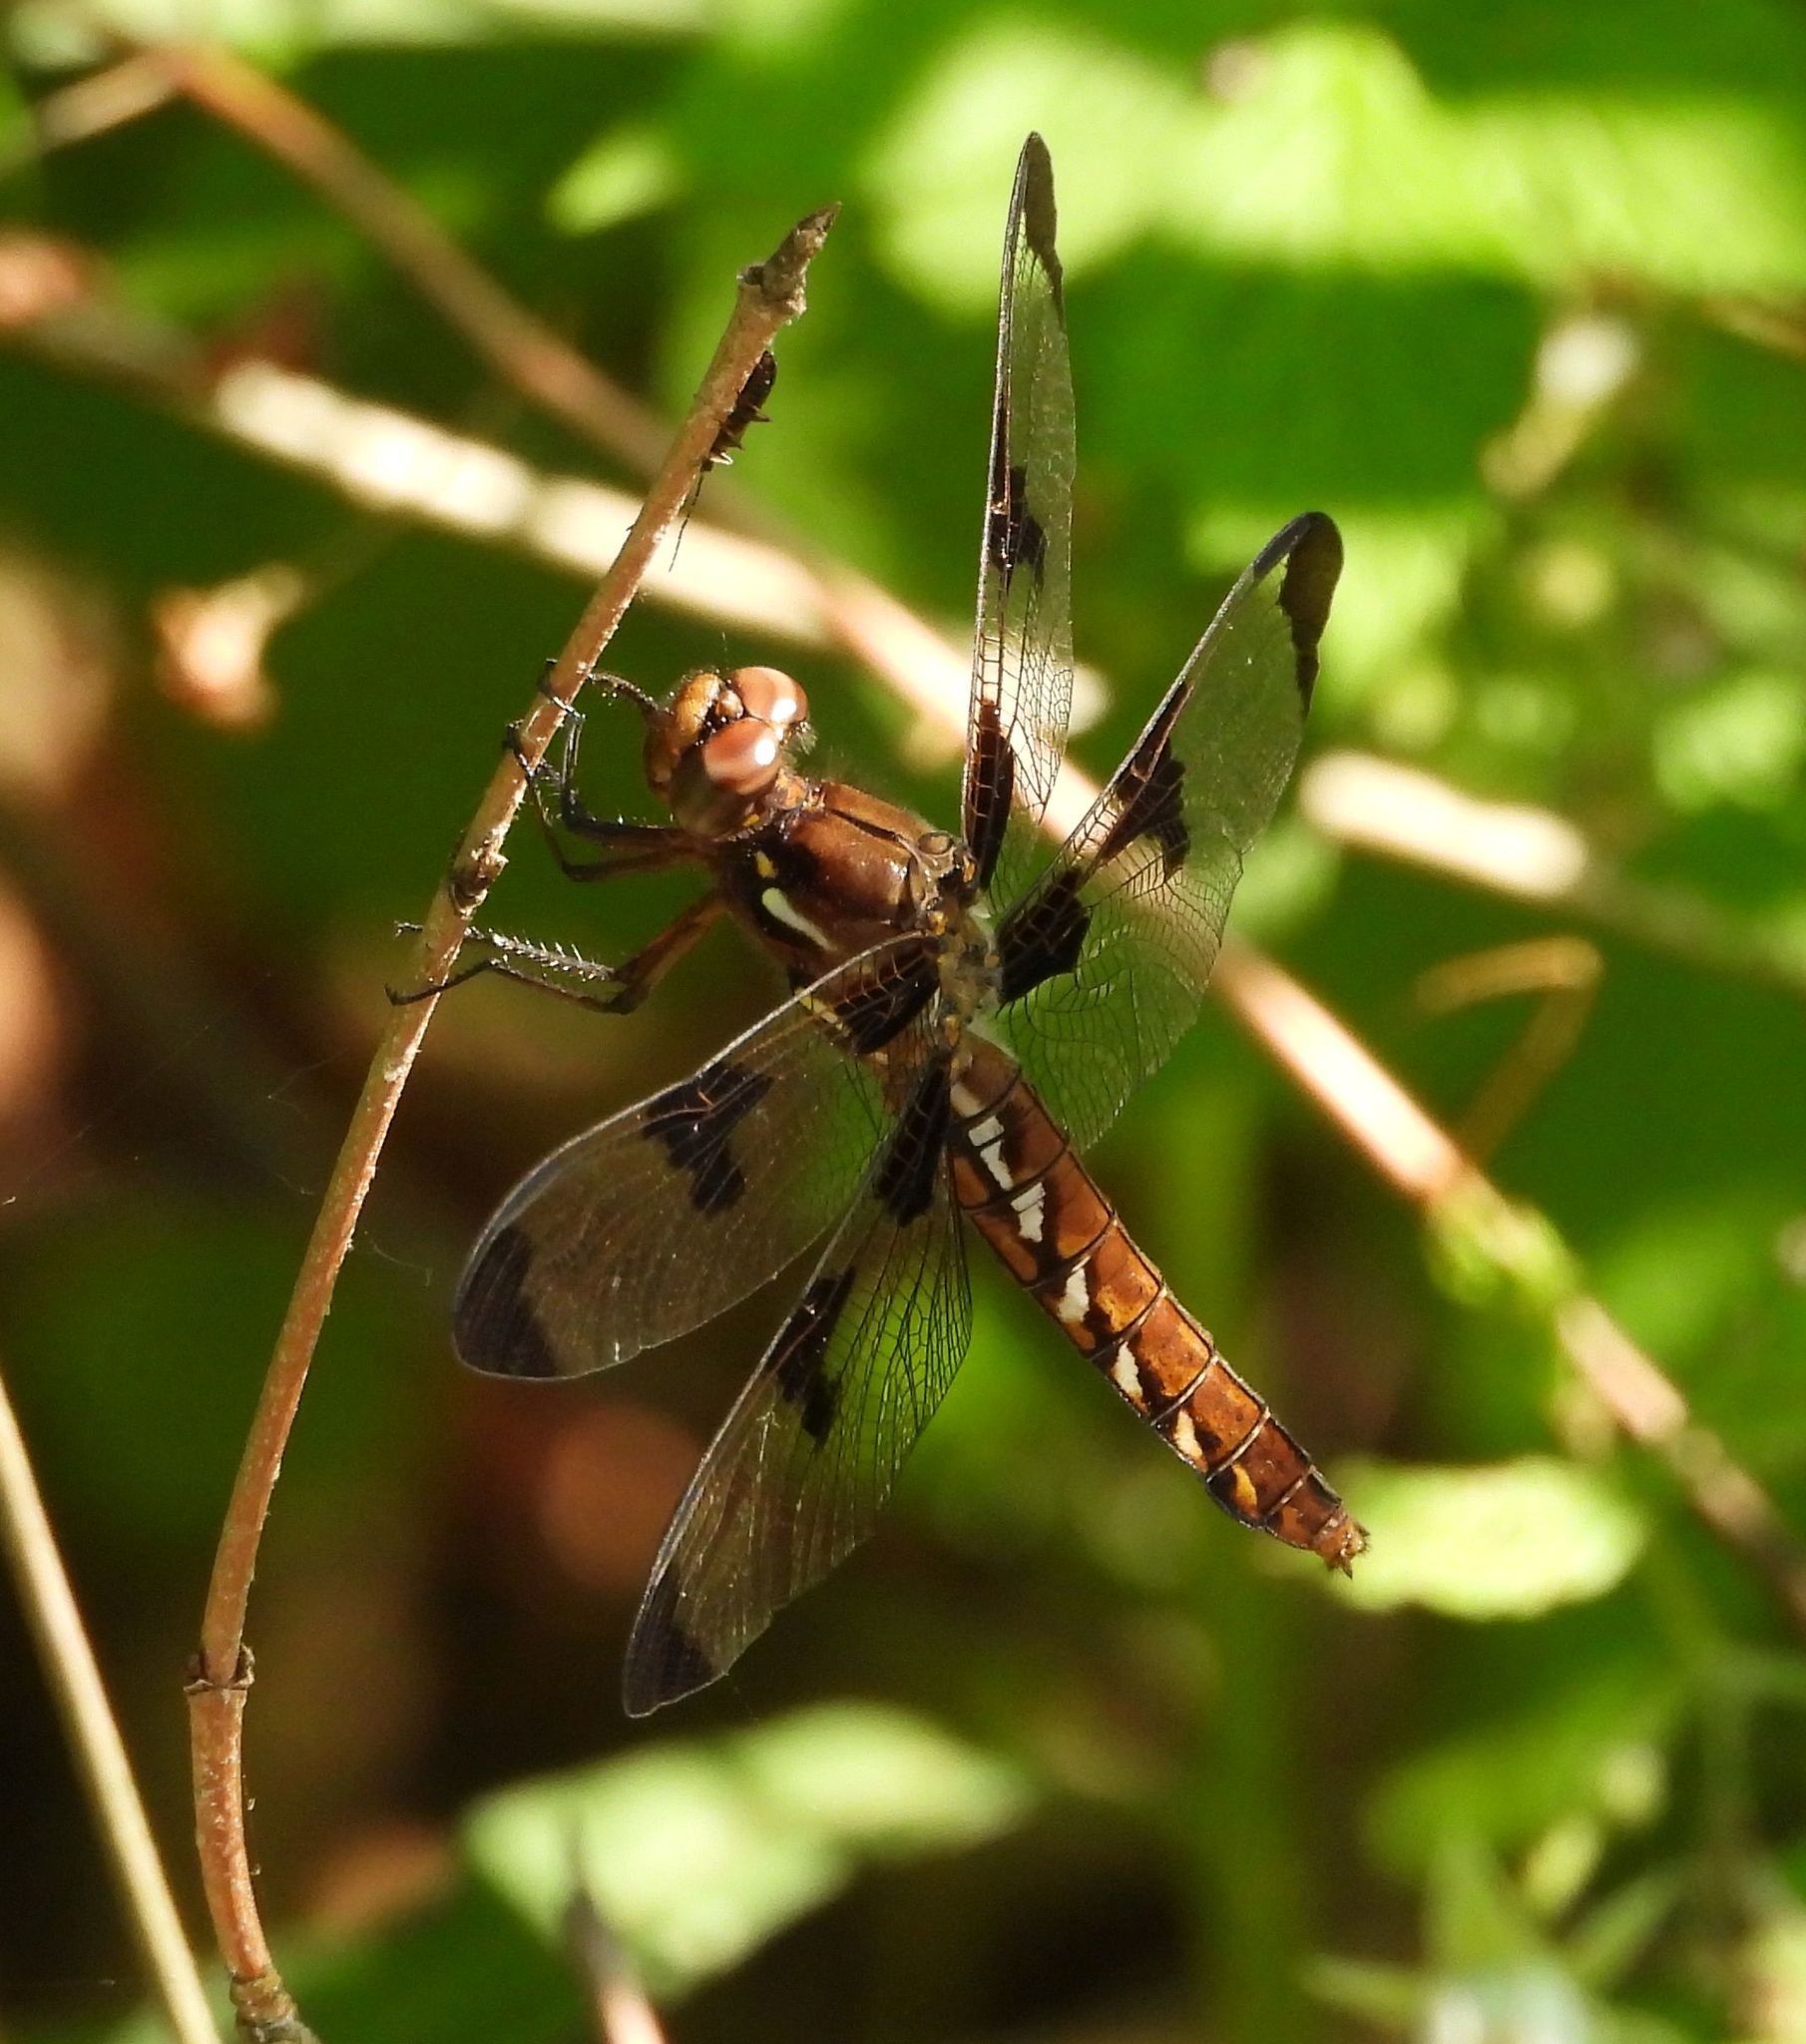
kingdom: Animalia
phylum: Arthropoda
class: Insecta
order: Odonata
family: Libellulidae
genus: Plathemis
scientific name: Plathemis lydia
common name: Common whitetail
